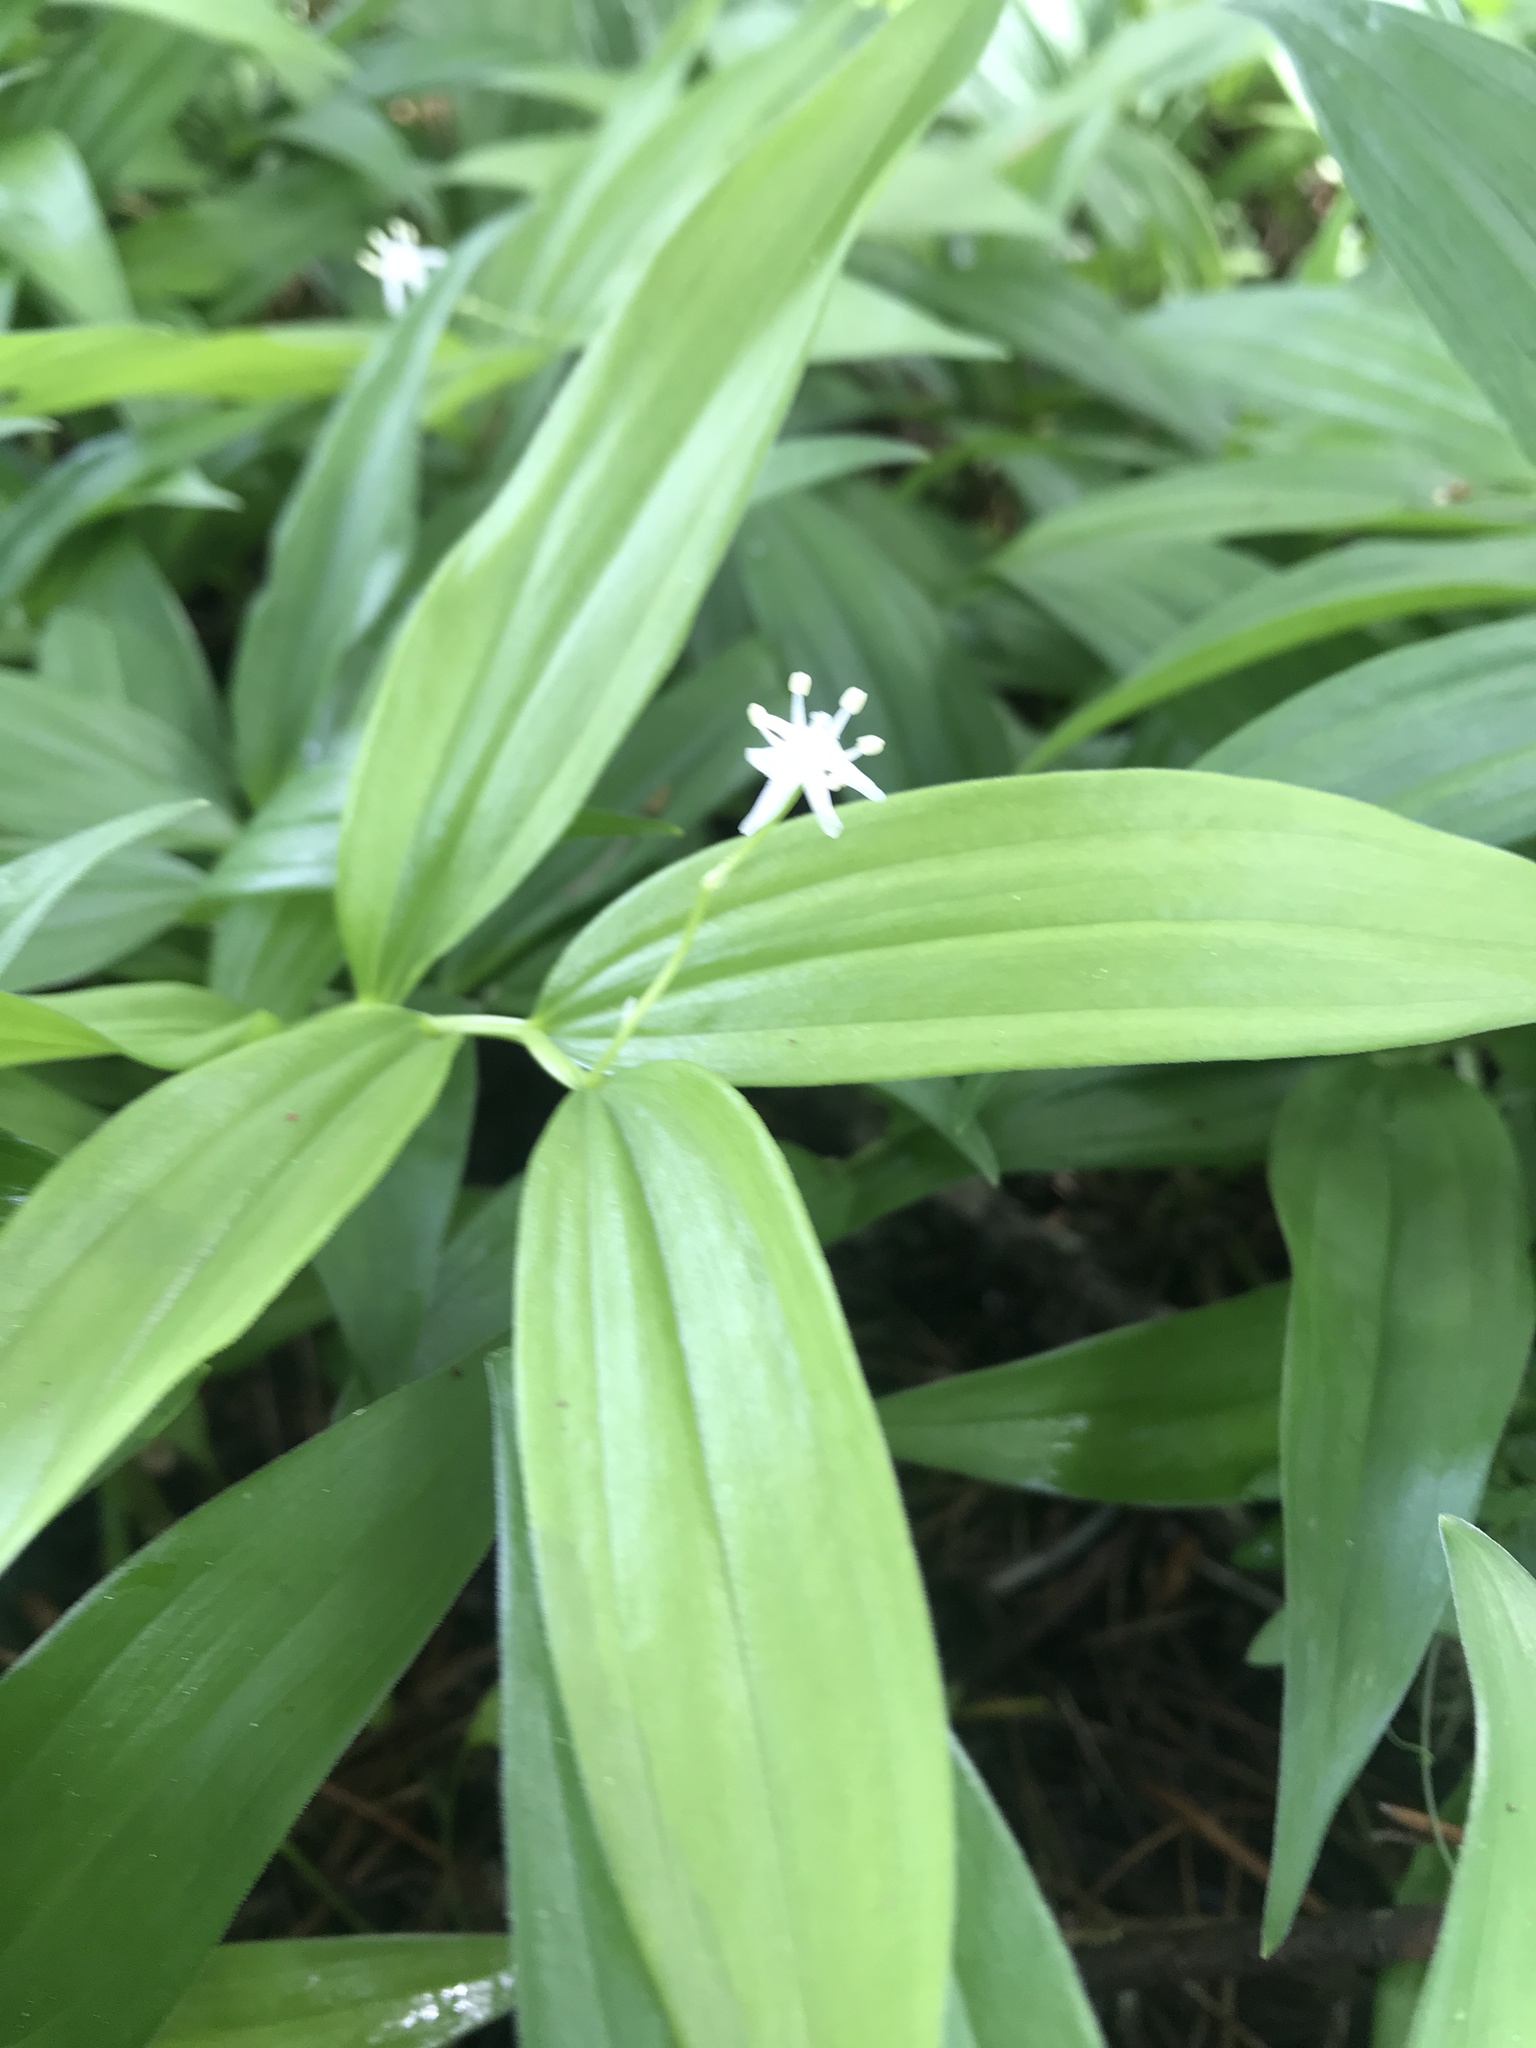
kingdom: Plantae
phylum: Tracheophyta
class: Liliopsida
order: Asparagales
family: Asparagaceae
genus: Maianthemum
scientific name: Maianthemum stellatum
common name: Little false solomon's seal
